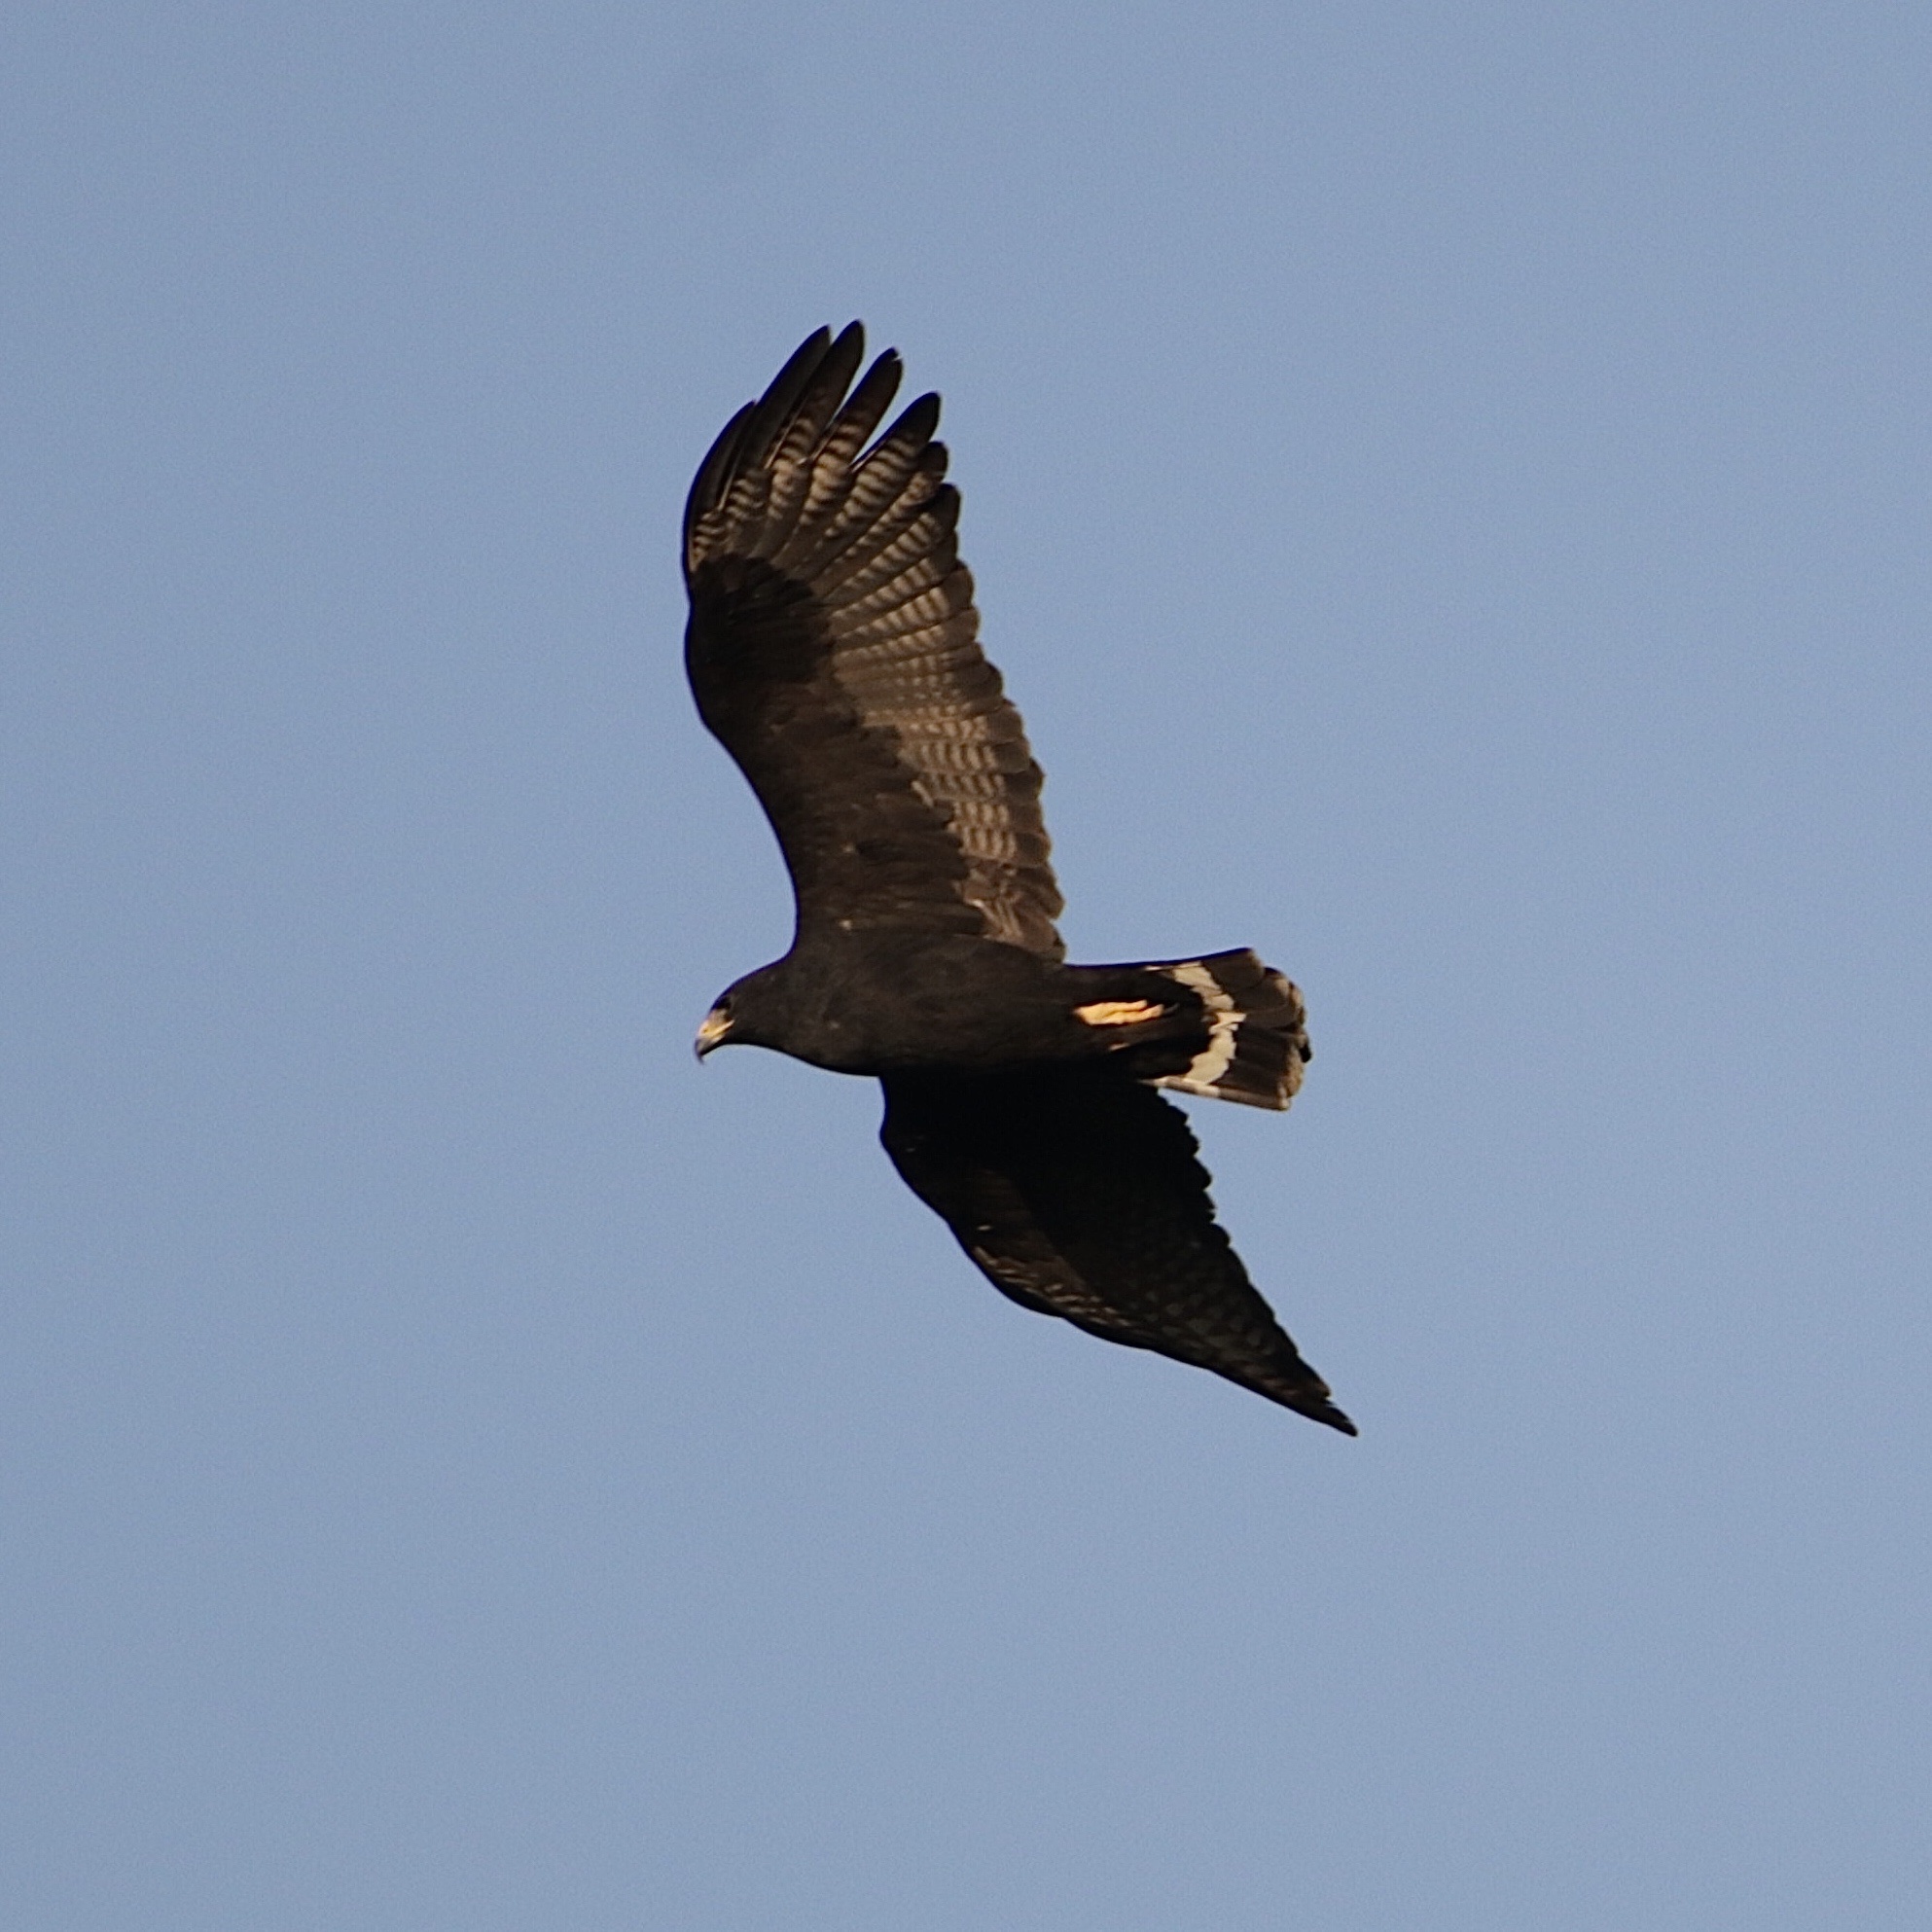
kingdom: Animalia
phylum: Chordata
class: Aves
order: Accipitriformes
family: Accipitridae
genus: Buteo
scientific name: Buteo albonotatus
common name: Zone-tailed hawk
